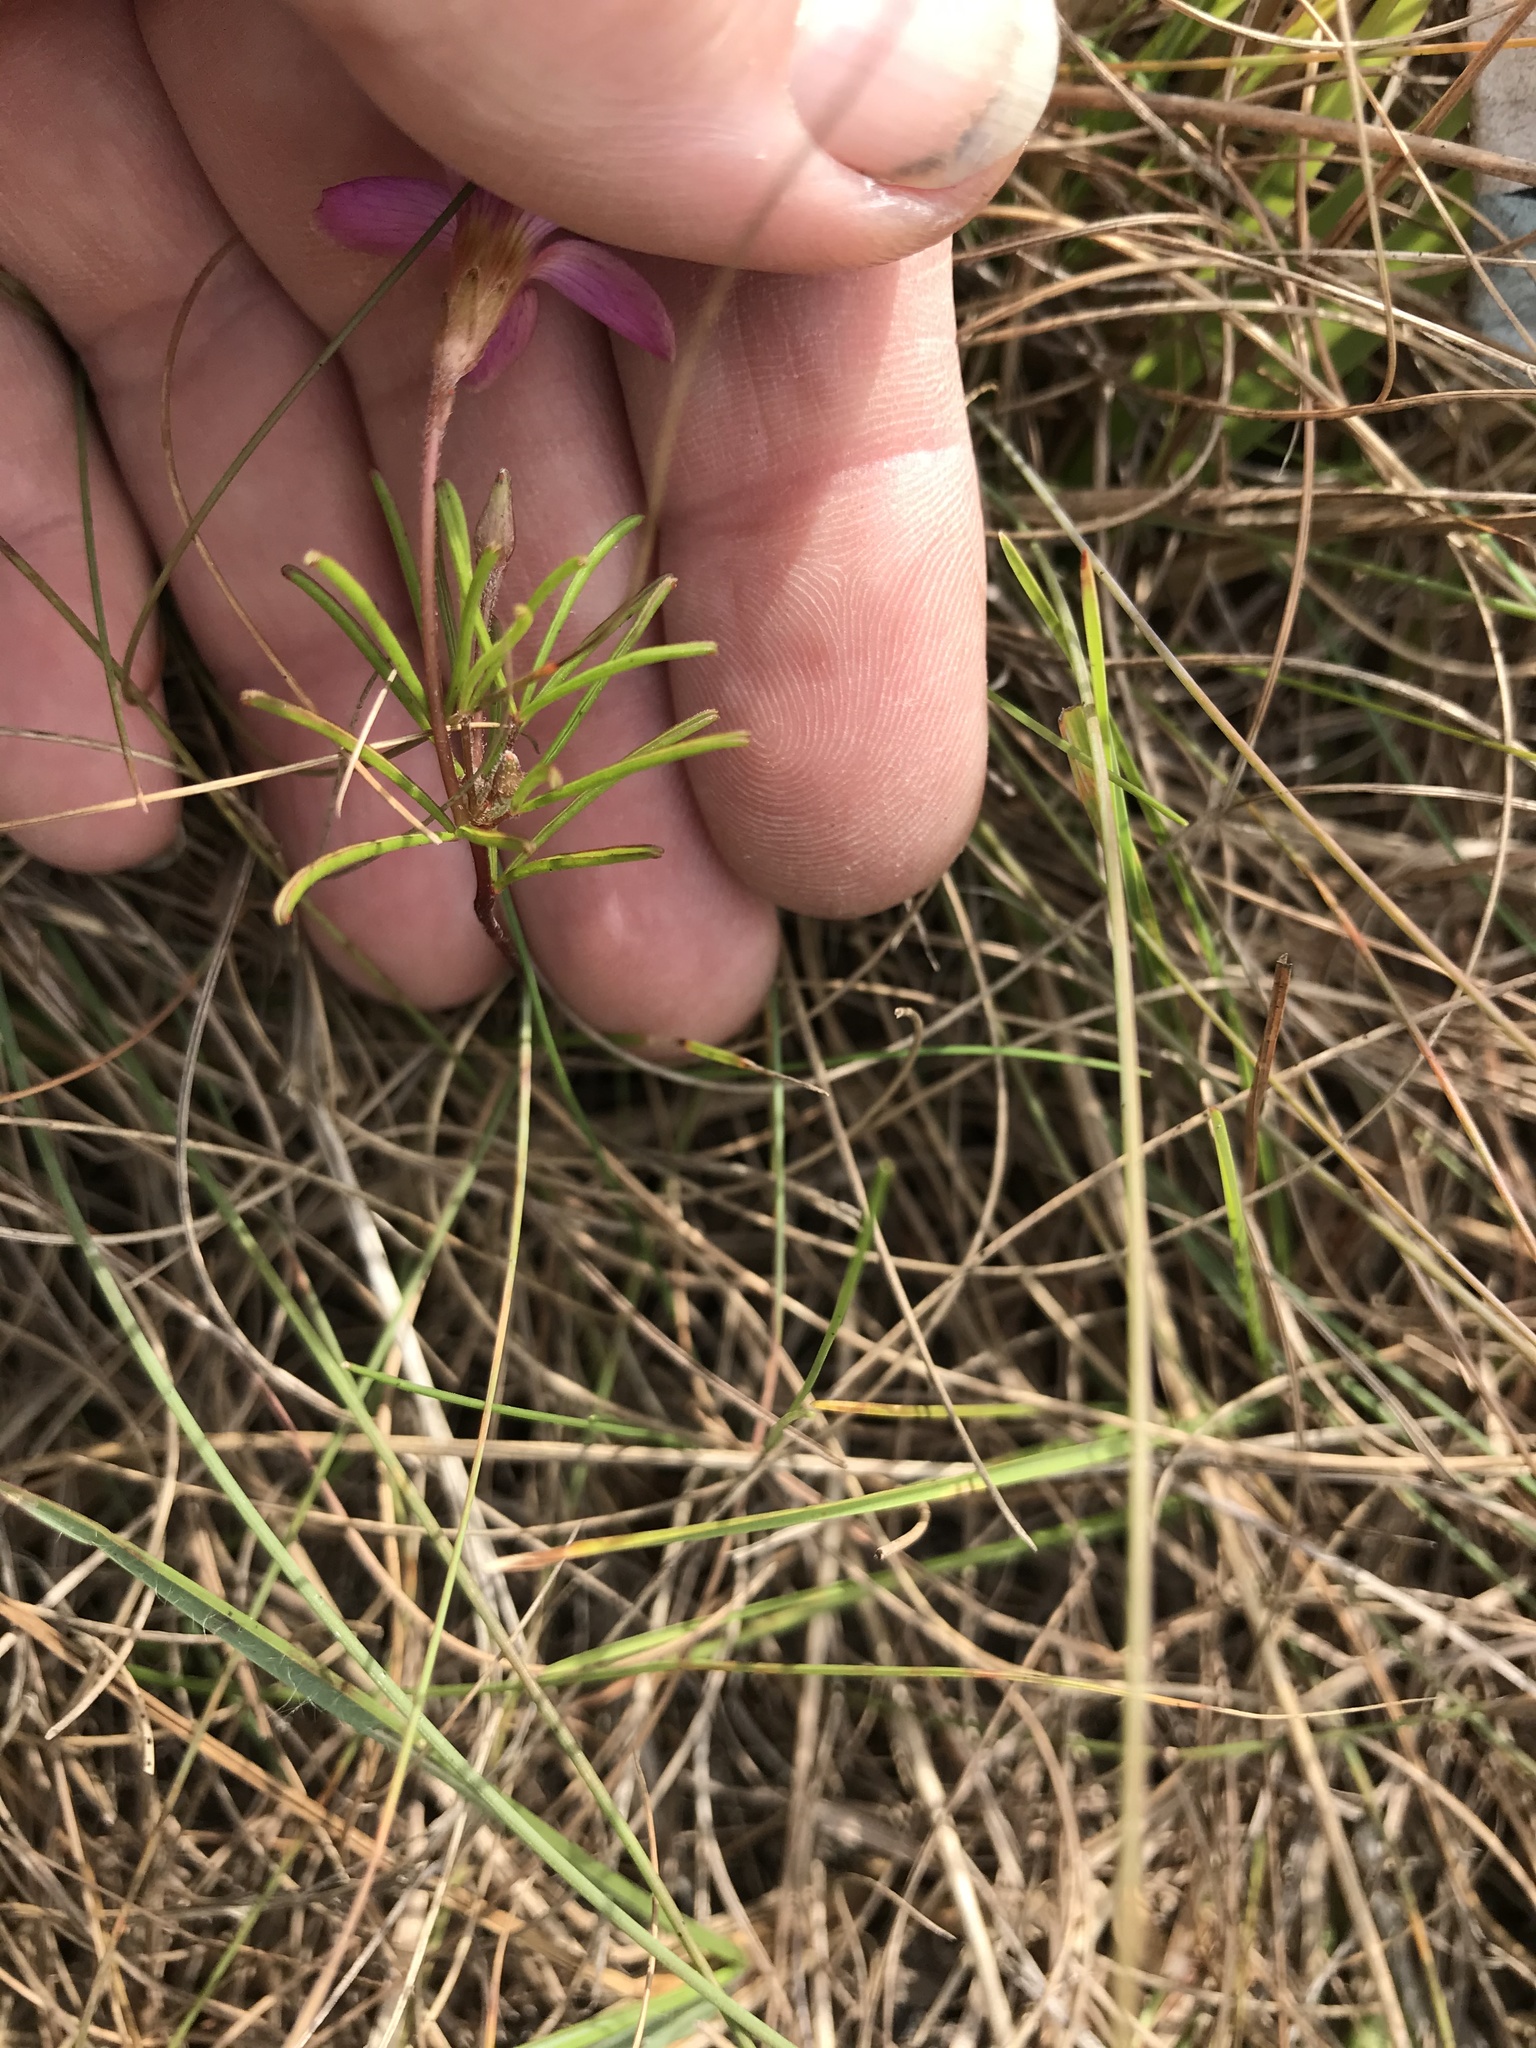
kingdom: Plantae
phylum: Tracheophyta
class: Magnoliopsida
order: Oxalidales
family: Oxalidaceae
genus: Oxalis
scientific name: Oxalis polyphylla
